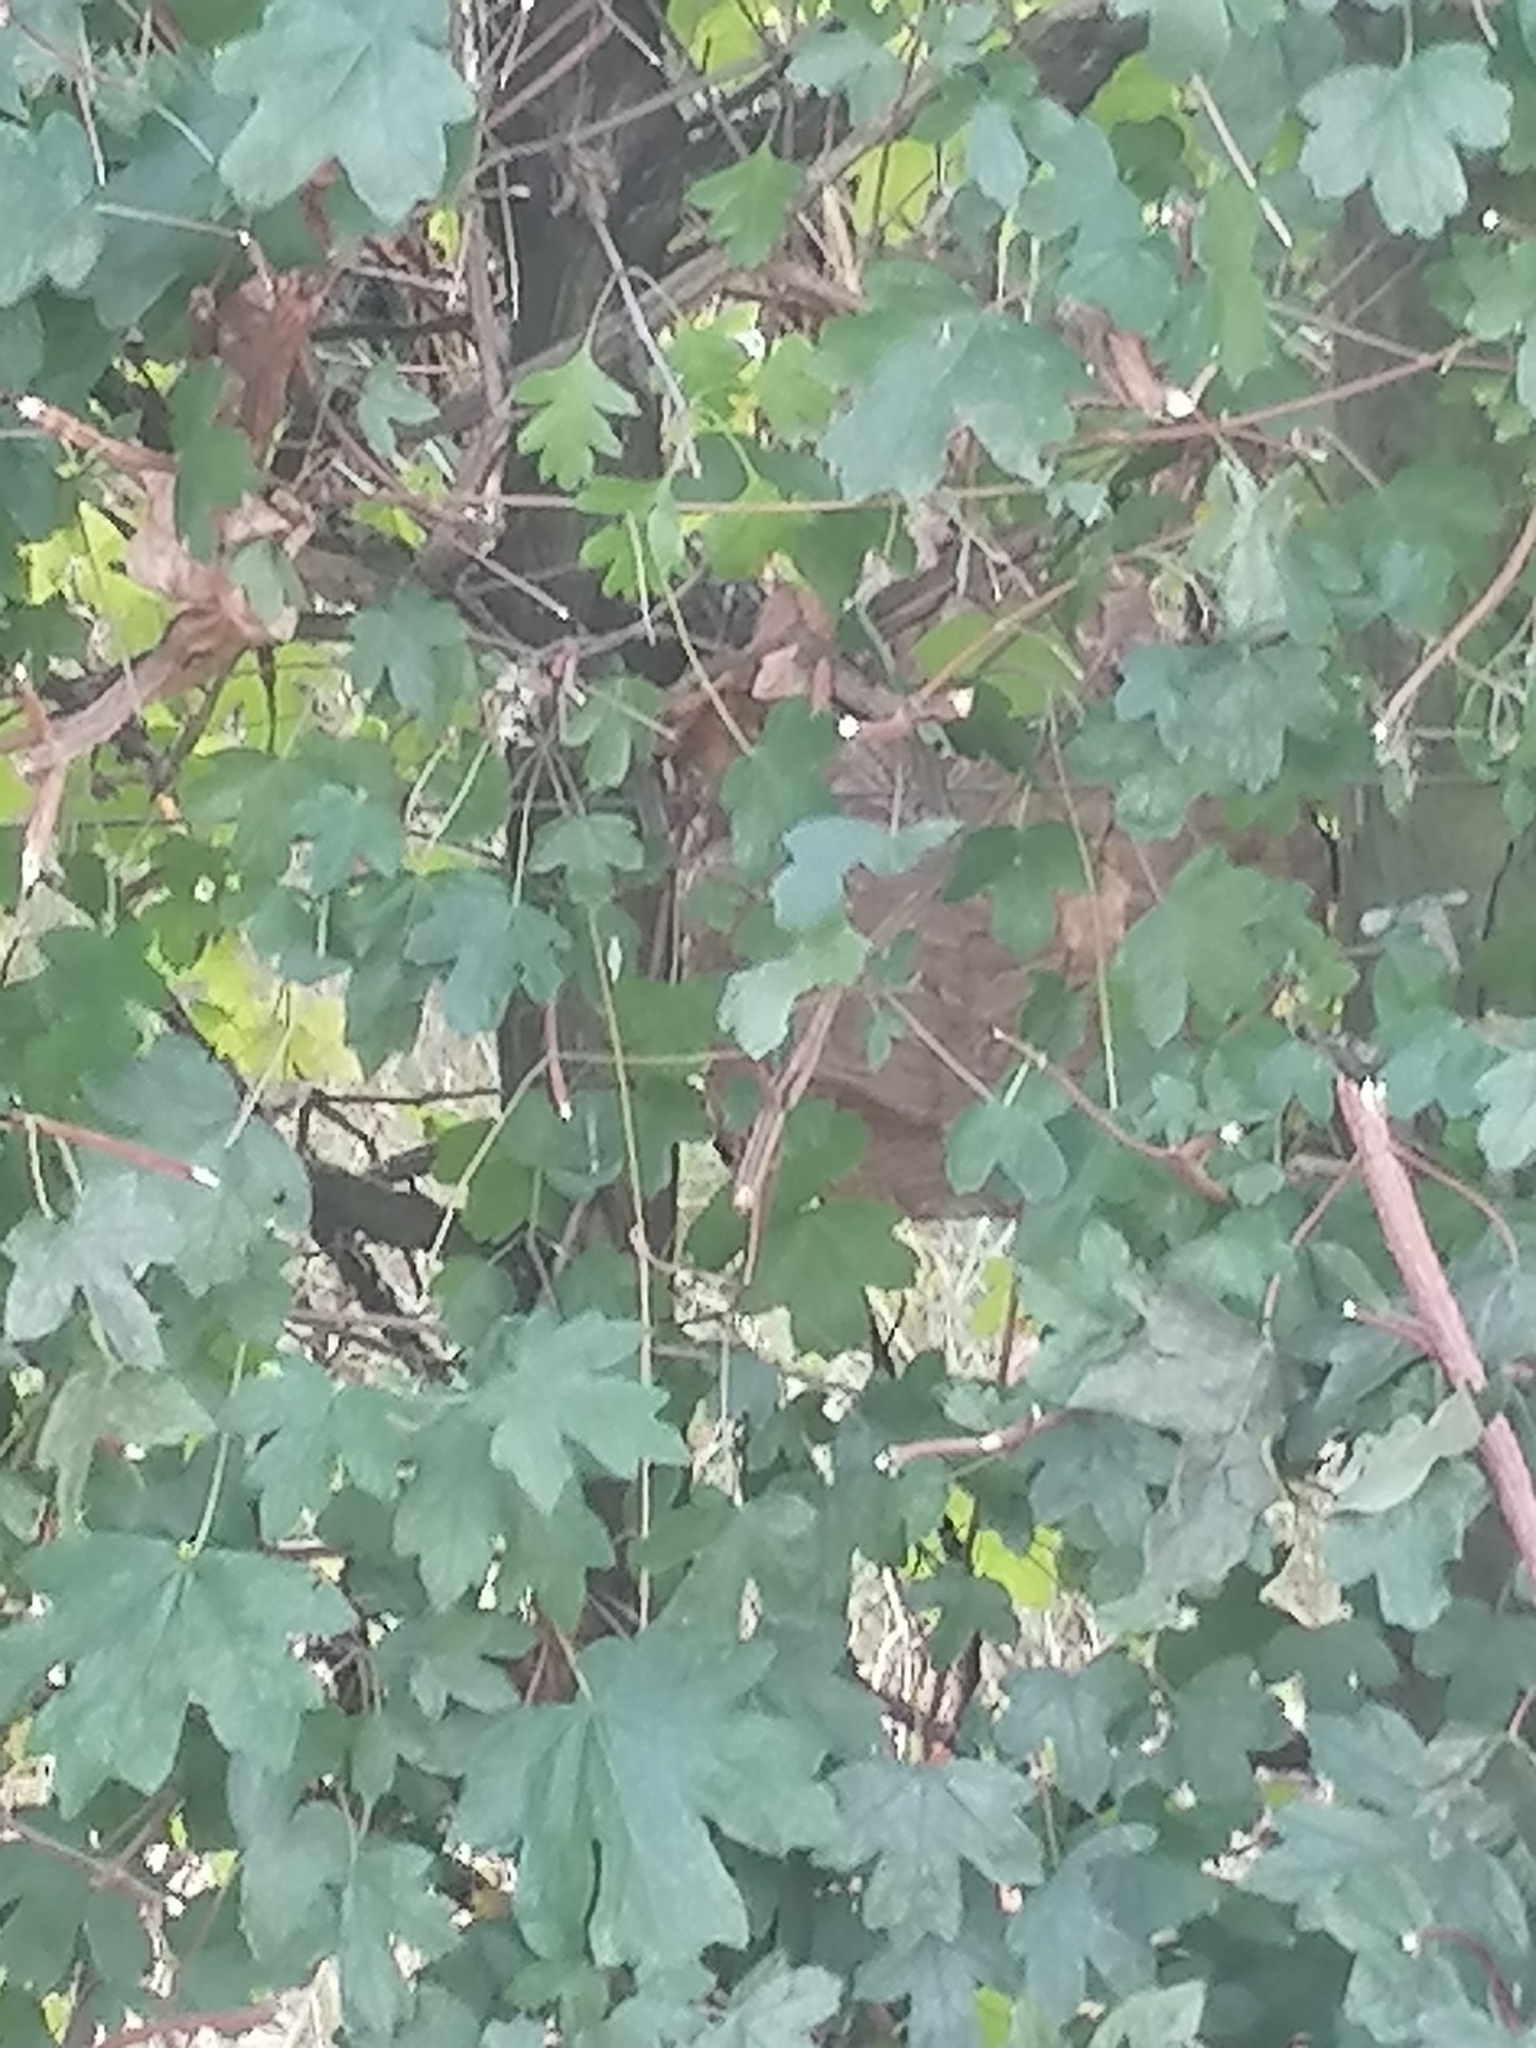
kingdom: Animalia
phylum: Arthropoda
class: Insecta
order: Hymenoptera
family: Vespidae
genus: Vespa
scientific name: Vespa velutina
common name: Asian hornet
